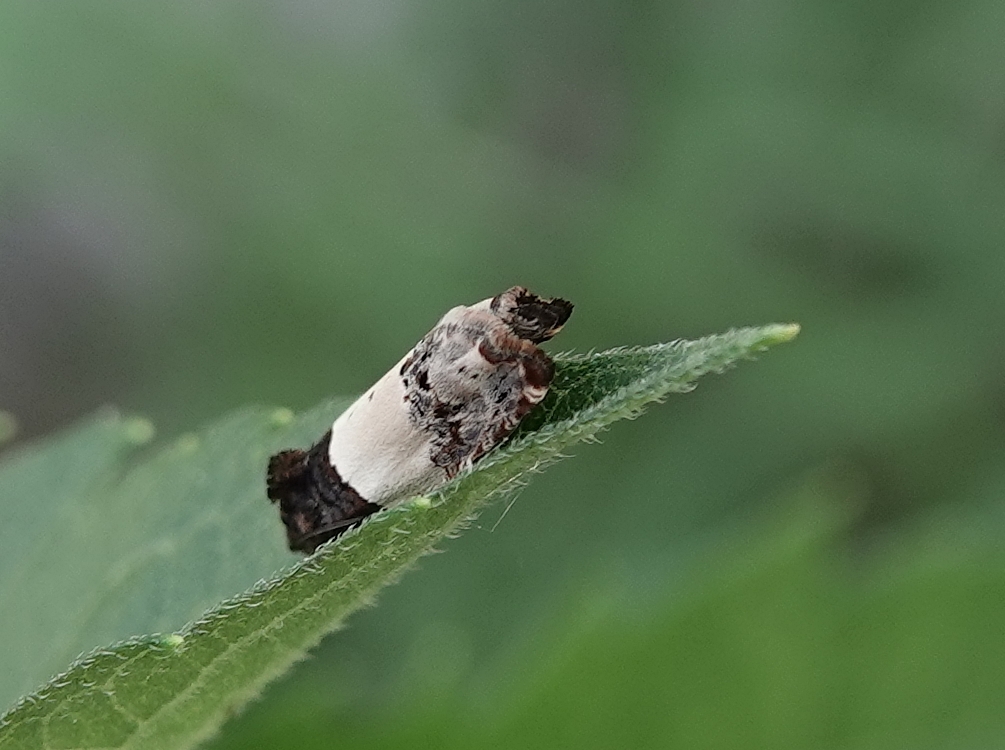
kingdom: Animalia
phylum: Arthropoda
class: Insecta
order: Lepidoptera
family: Tortricidae
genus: Epiblema
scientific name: Epiblema tripartitana
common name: Three-parted epiblema moth
